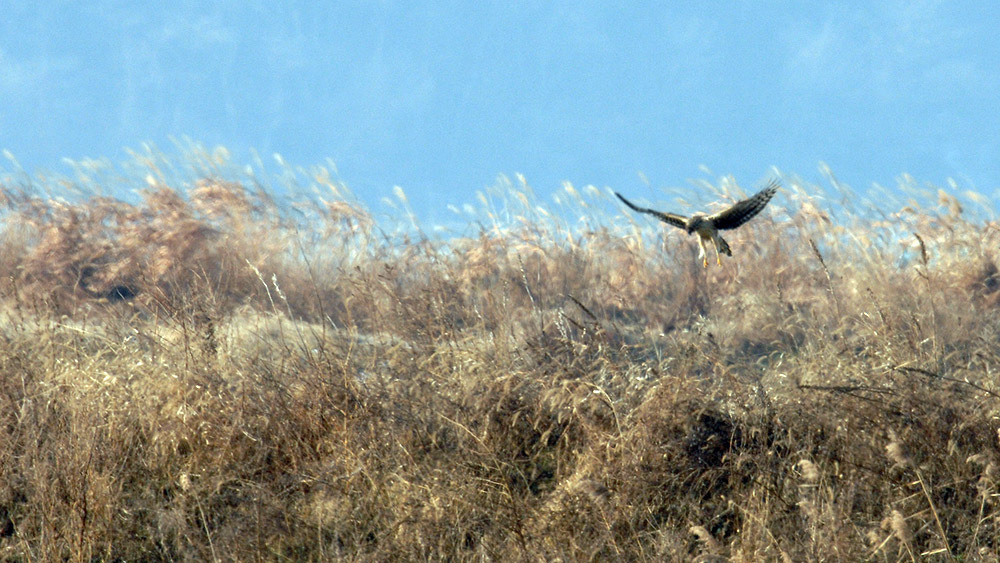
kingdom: Animalia
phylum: Chordata
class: Aves
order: Accipitriformes
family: Accipitridae
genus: Circus
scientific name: Circus cyaneus
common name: Hen harrier
